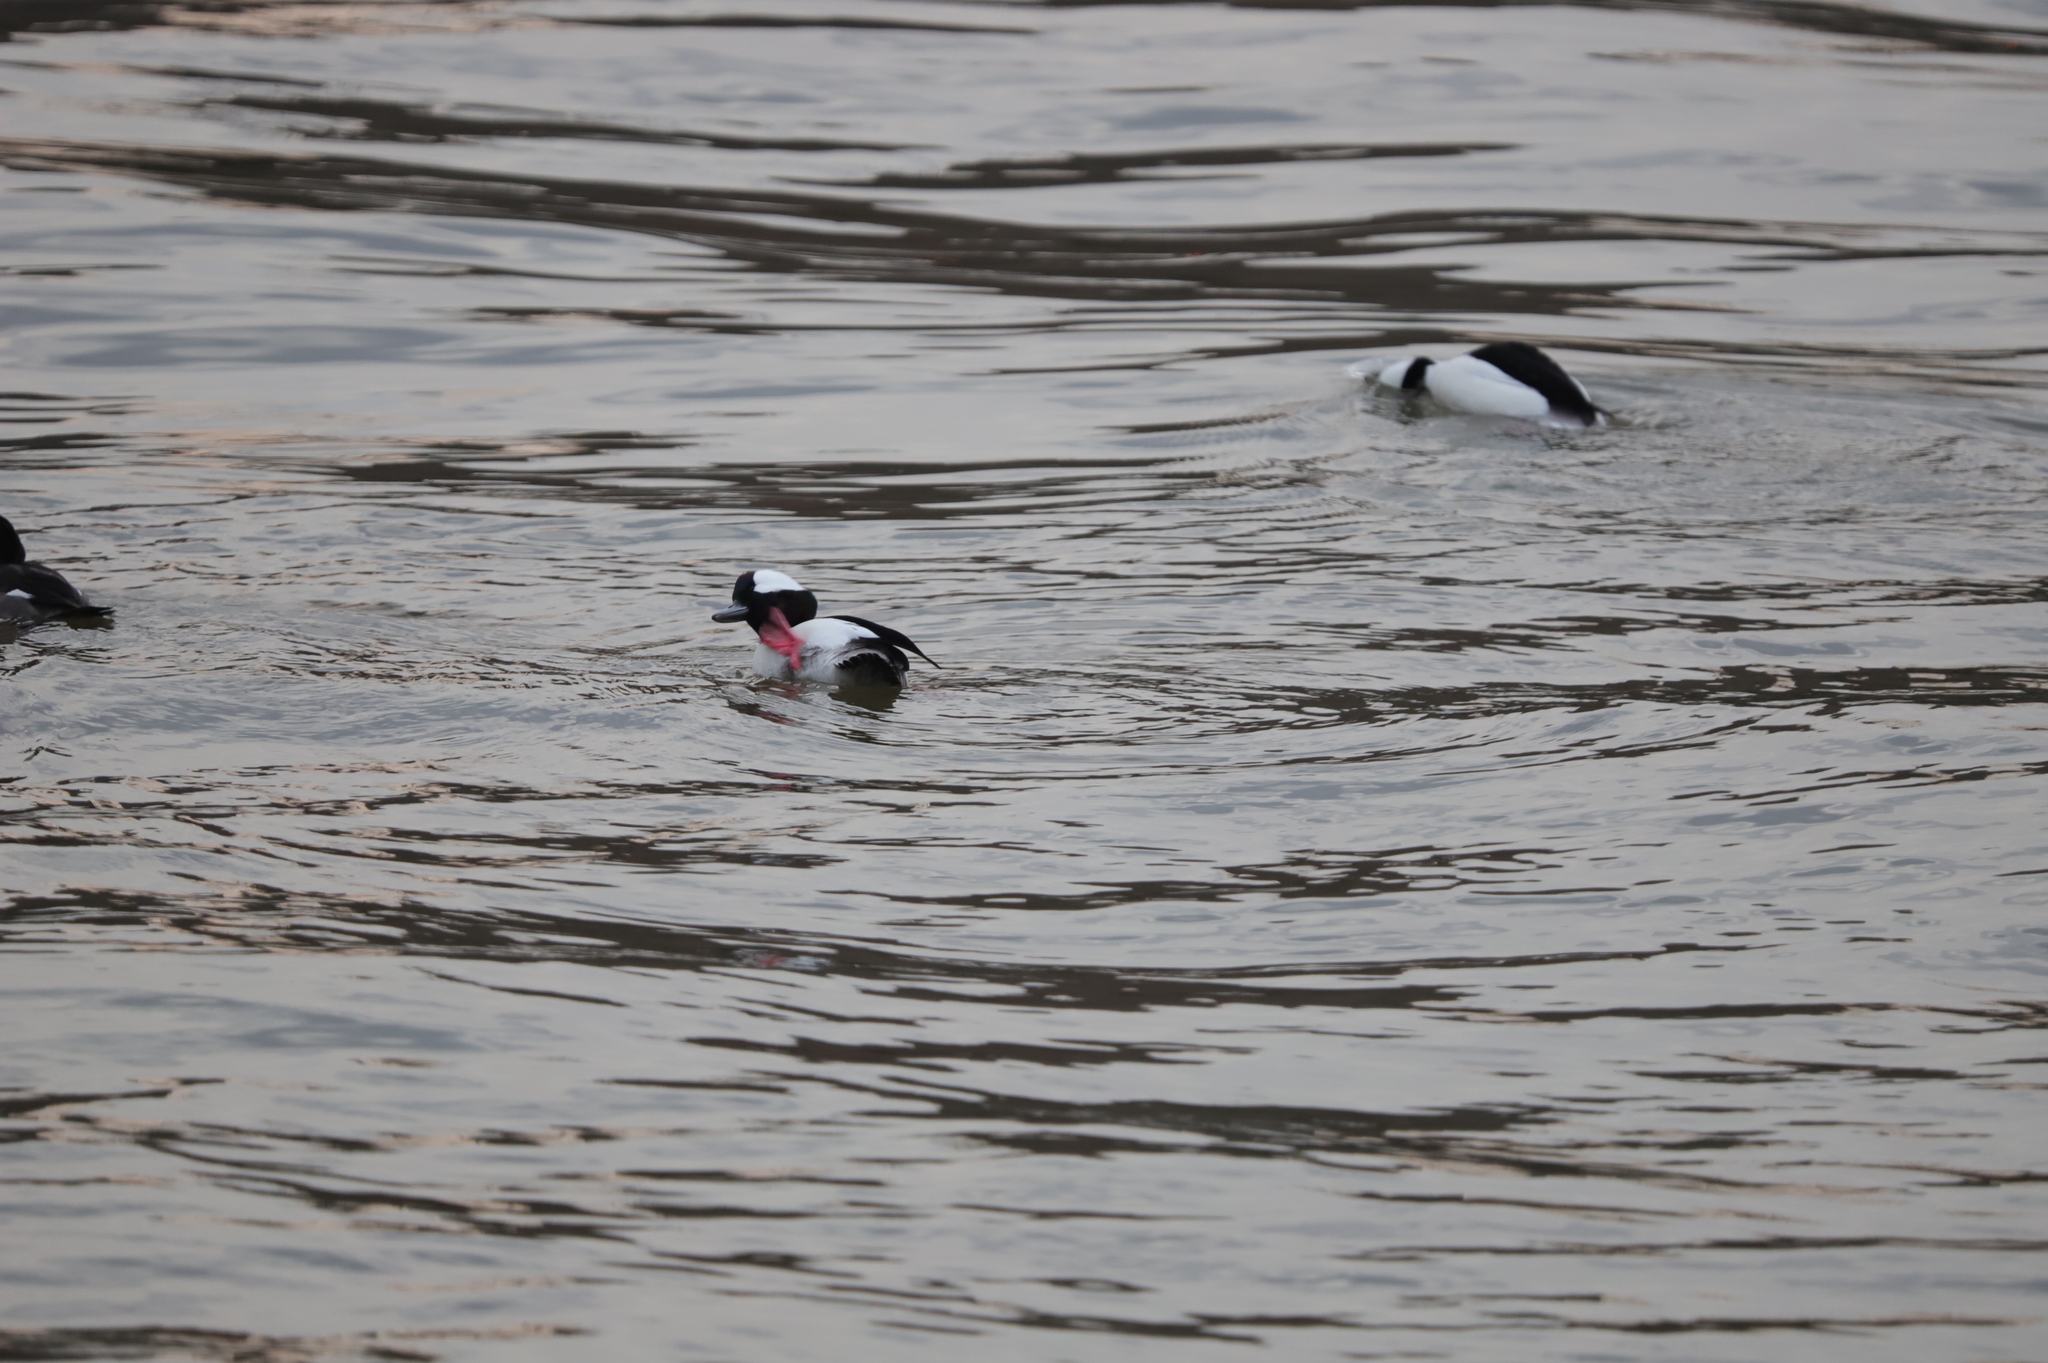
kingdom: Animalia
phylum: Chordata
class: Aves
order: Anseriformes
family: Anatidae
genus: Bucephala
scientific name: Bucephala albeola
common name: Bufflehead
